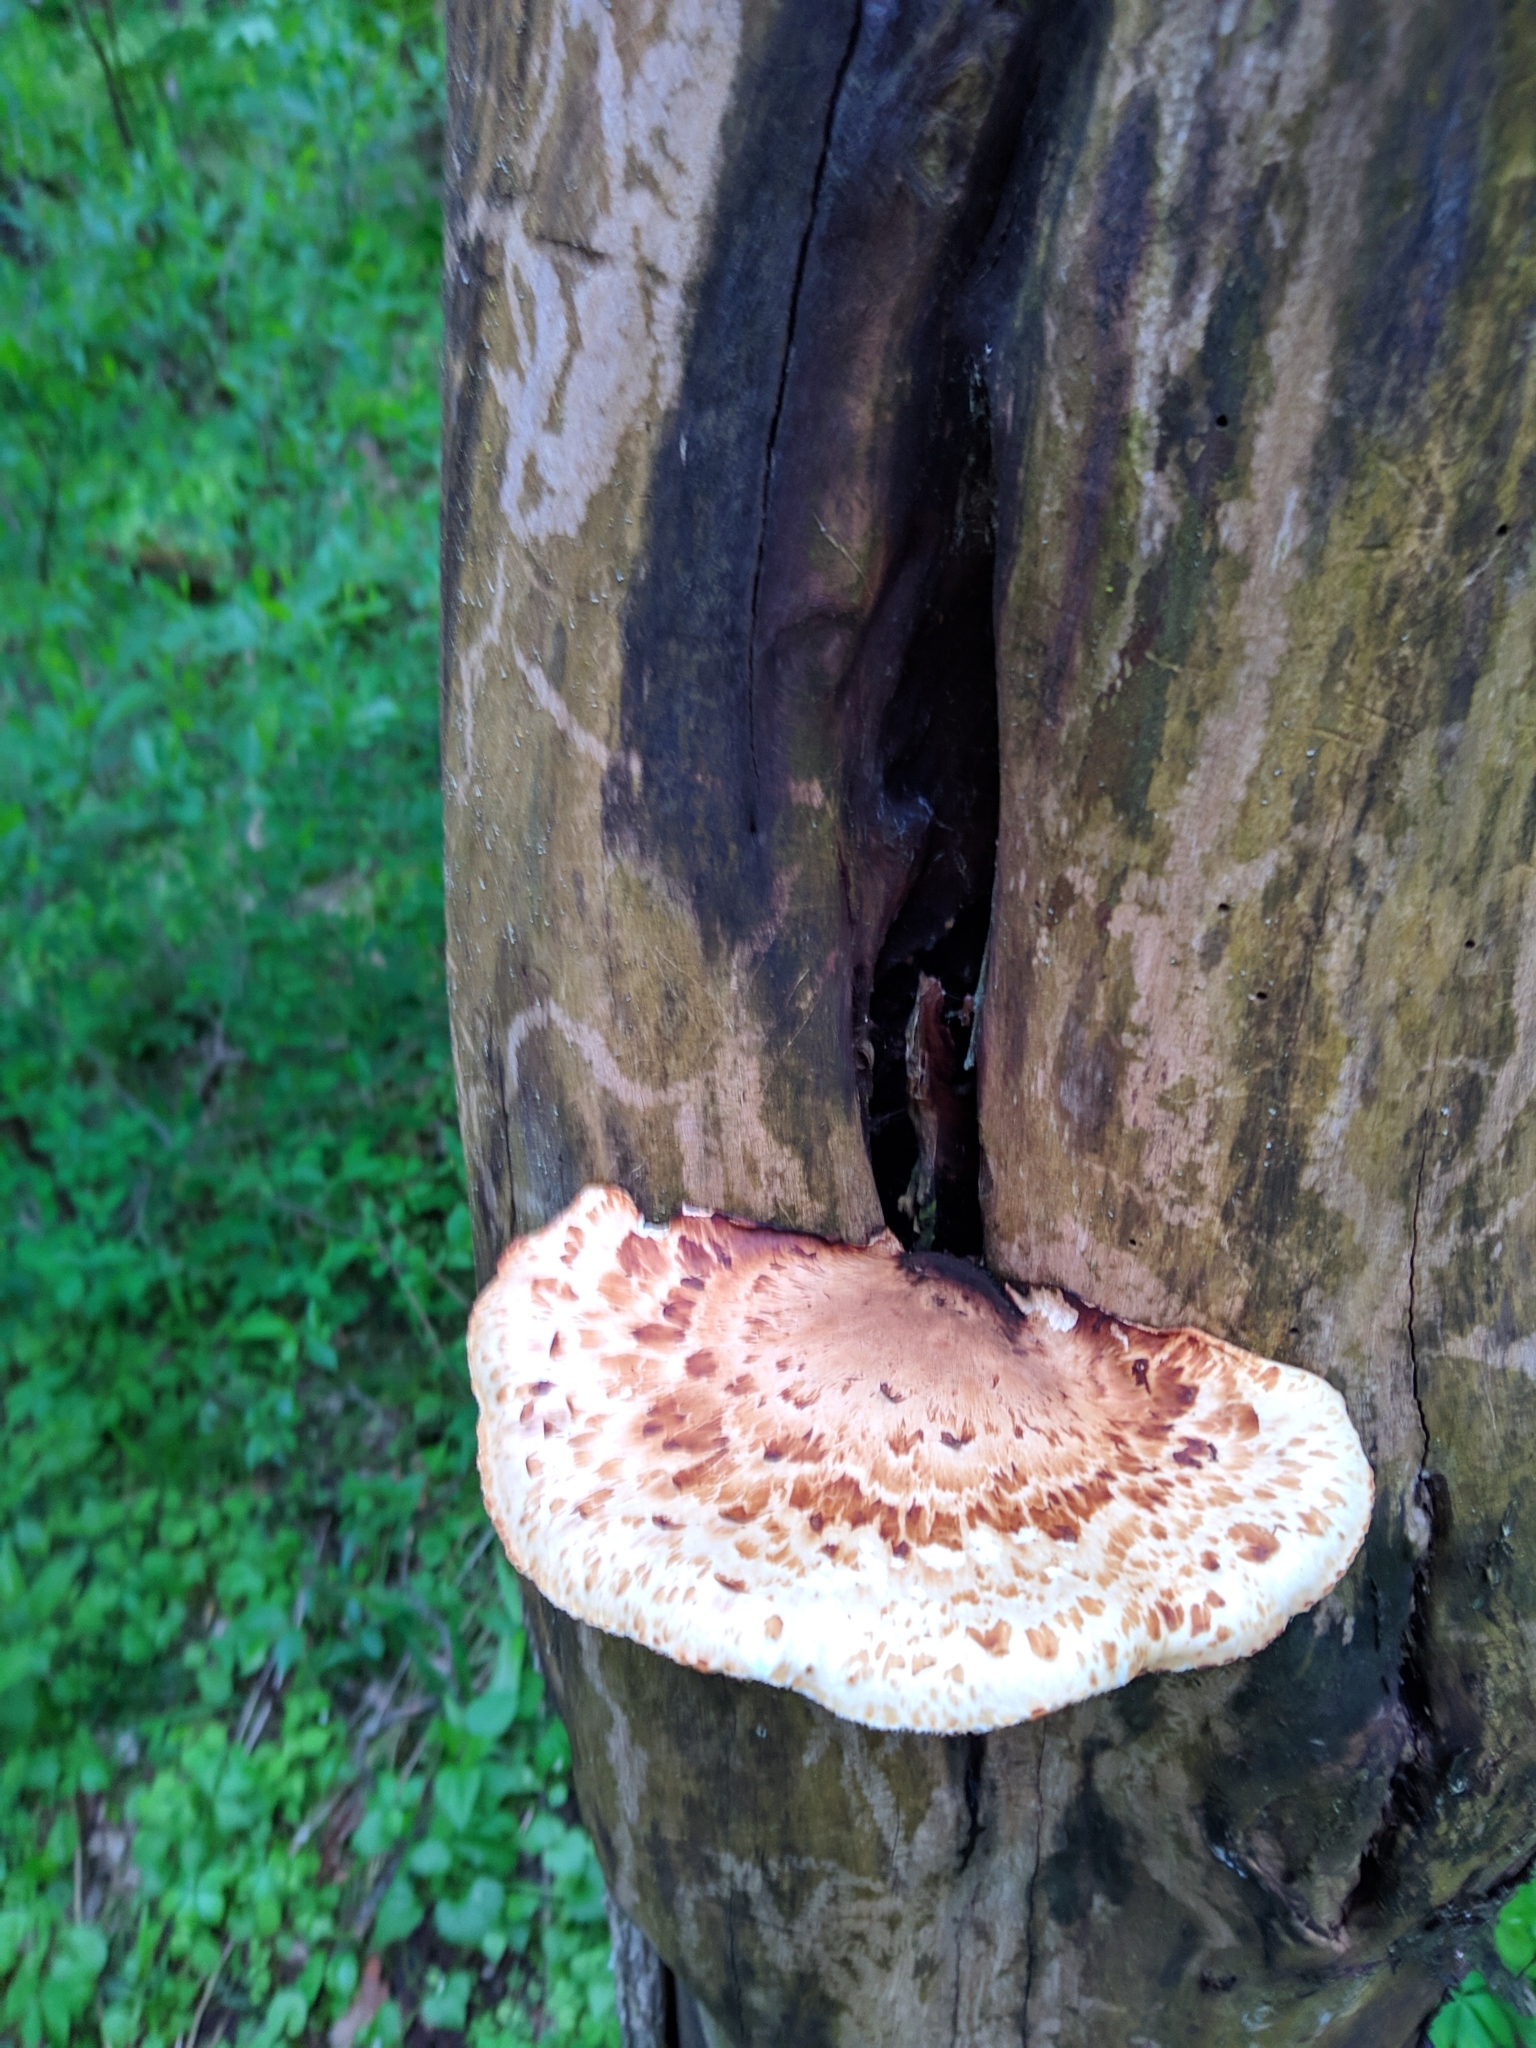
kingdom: Fungi
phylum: Basidiomycota
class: Agaricomycetes
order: Polyporales
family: Polyporaceae
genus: Cerioporus
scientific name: Cerioporus squamosus
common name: Dryad's saddle
